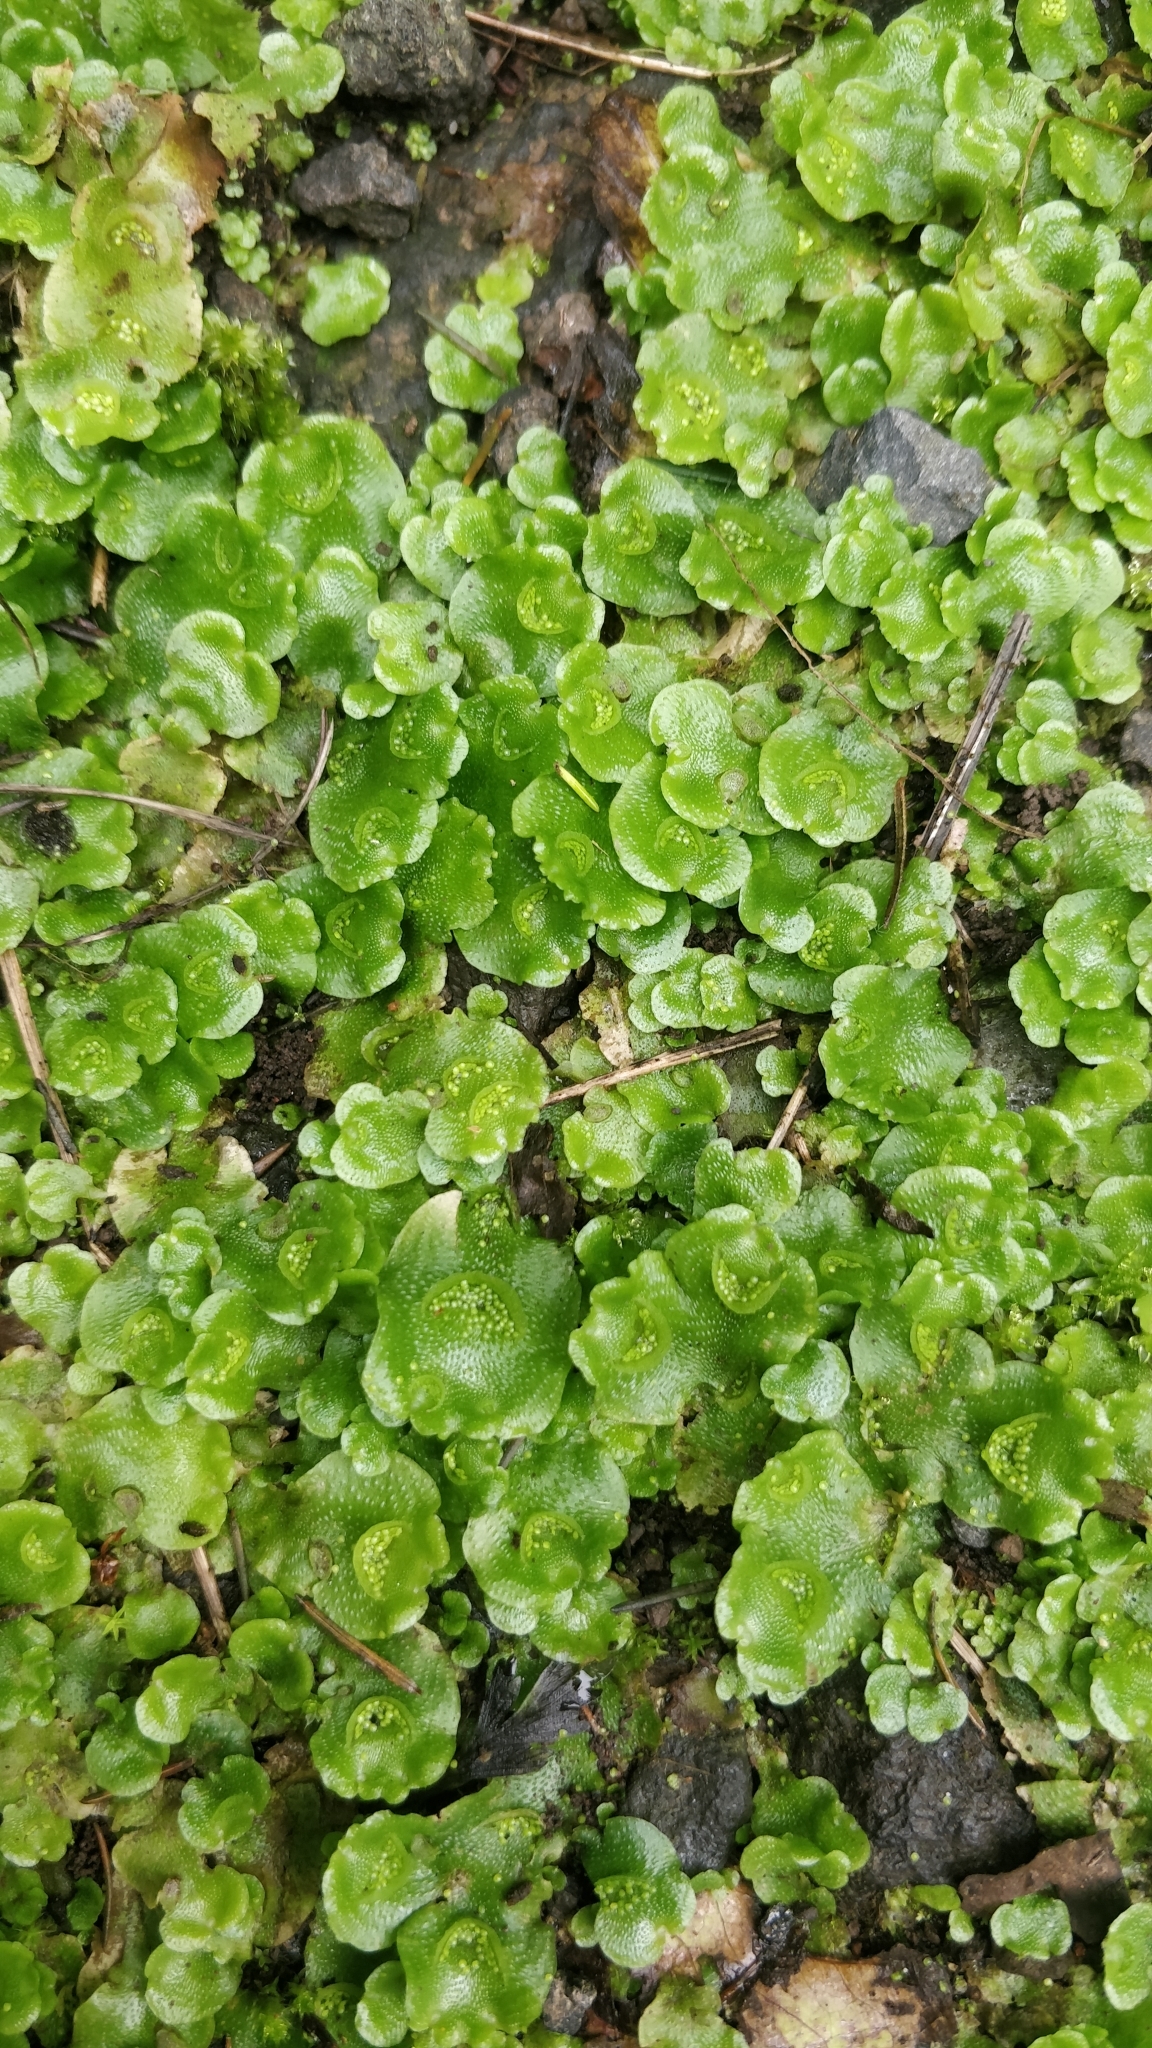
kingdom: Plantae
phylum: Marchantiophyta
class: Marchantiopsida
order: Lunulariales
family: Lunulariaceae
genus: Lunularia
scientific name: Lunularia cruciata
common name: Crescent-cup liverwort
